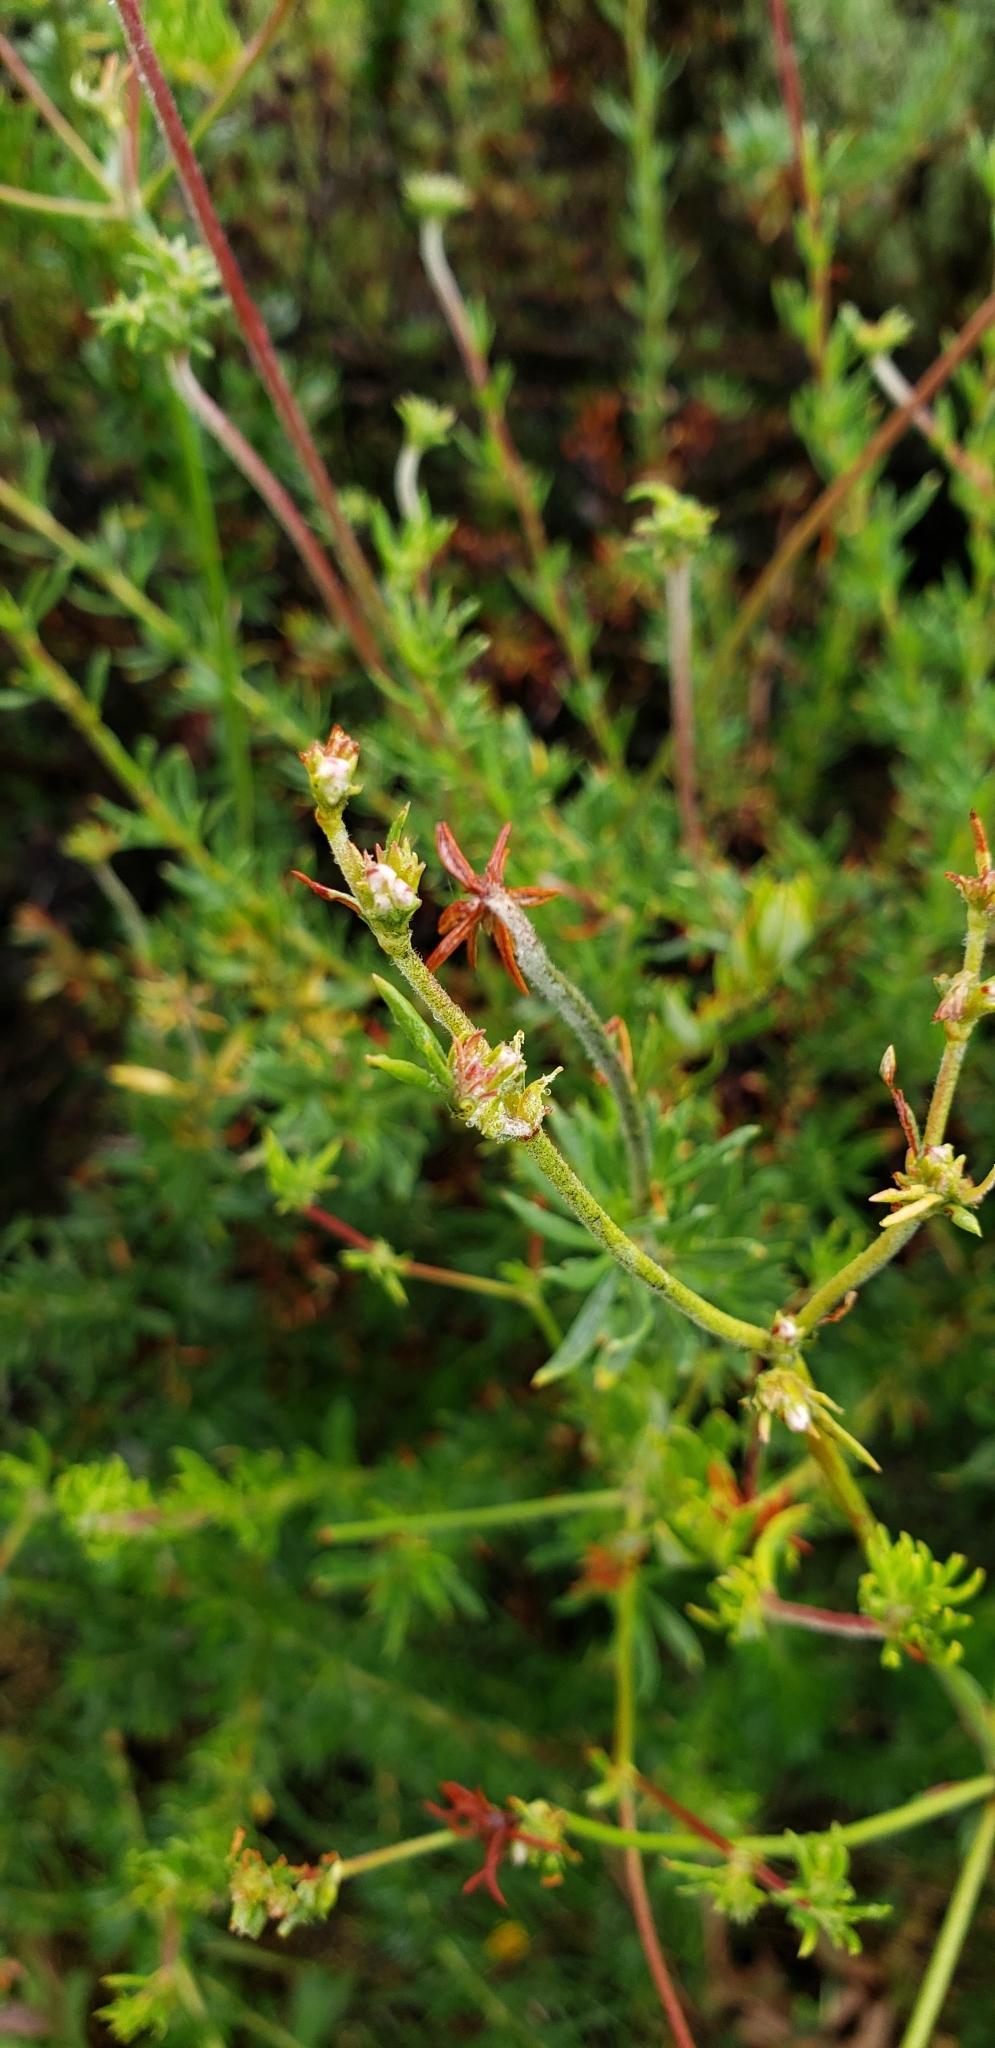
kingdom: Plantae
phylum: Tracheophyta
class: Magnoliopsida
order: Caryophyllales
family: Polygonaceae
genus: Eriogonum
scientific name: Eriogonum fasciculatum
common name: California wild buckwheat
